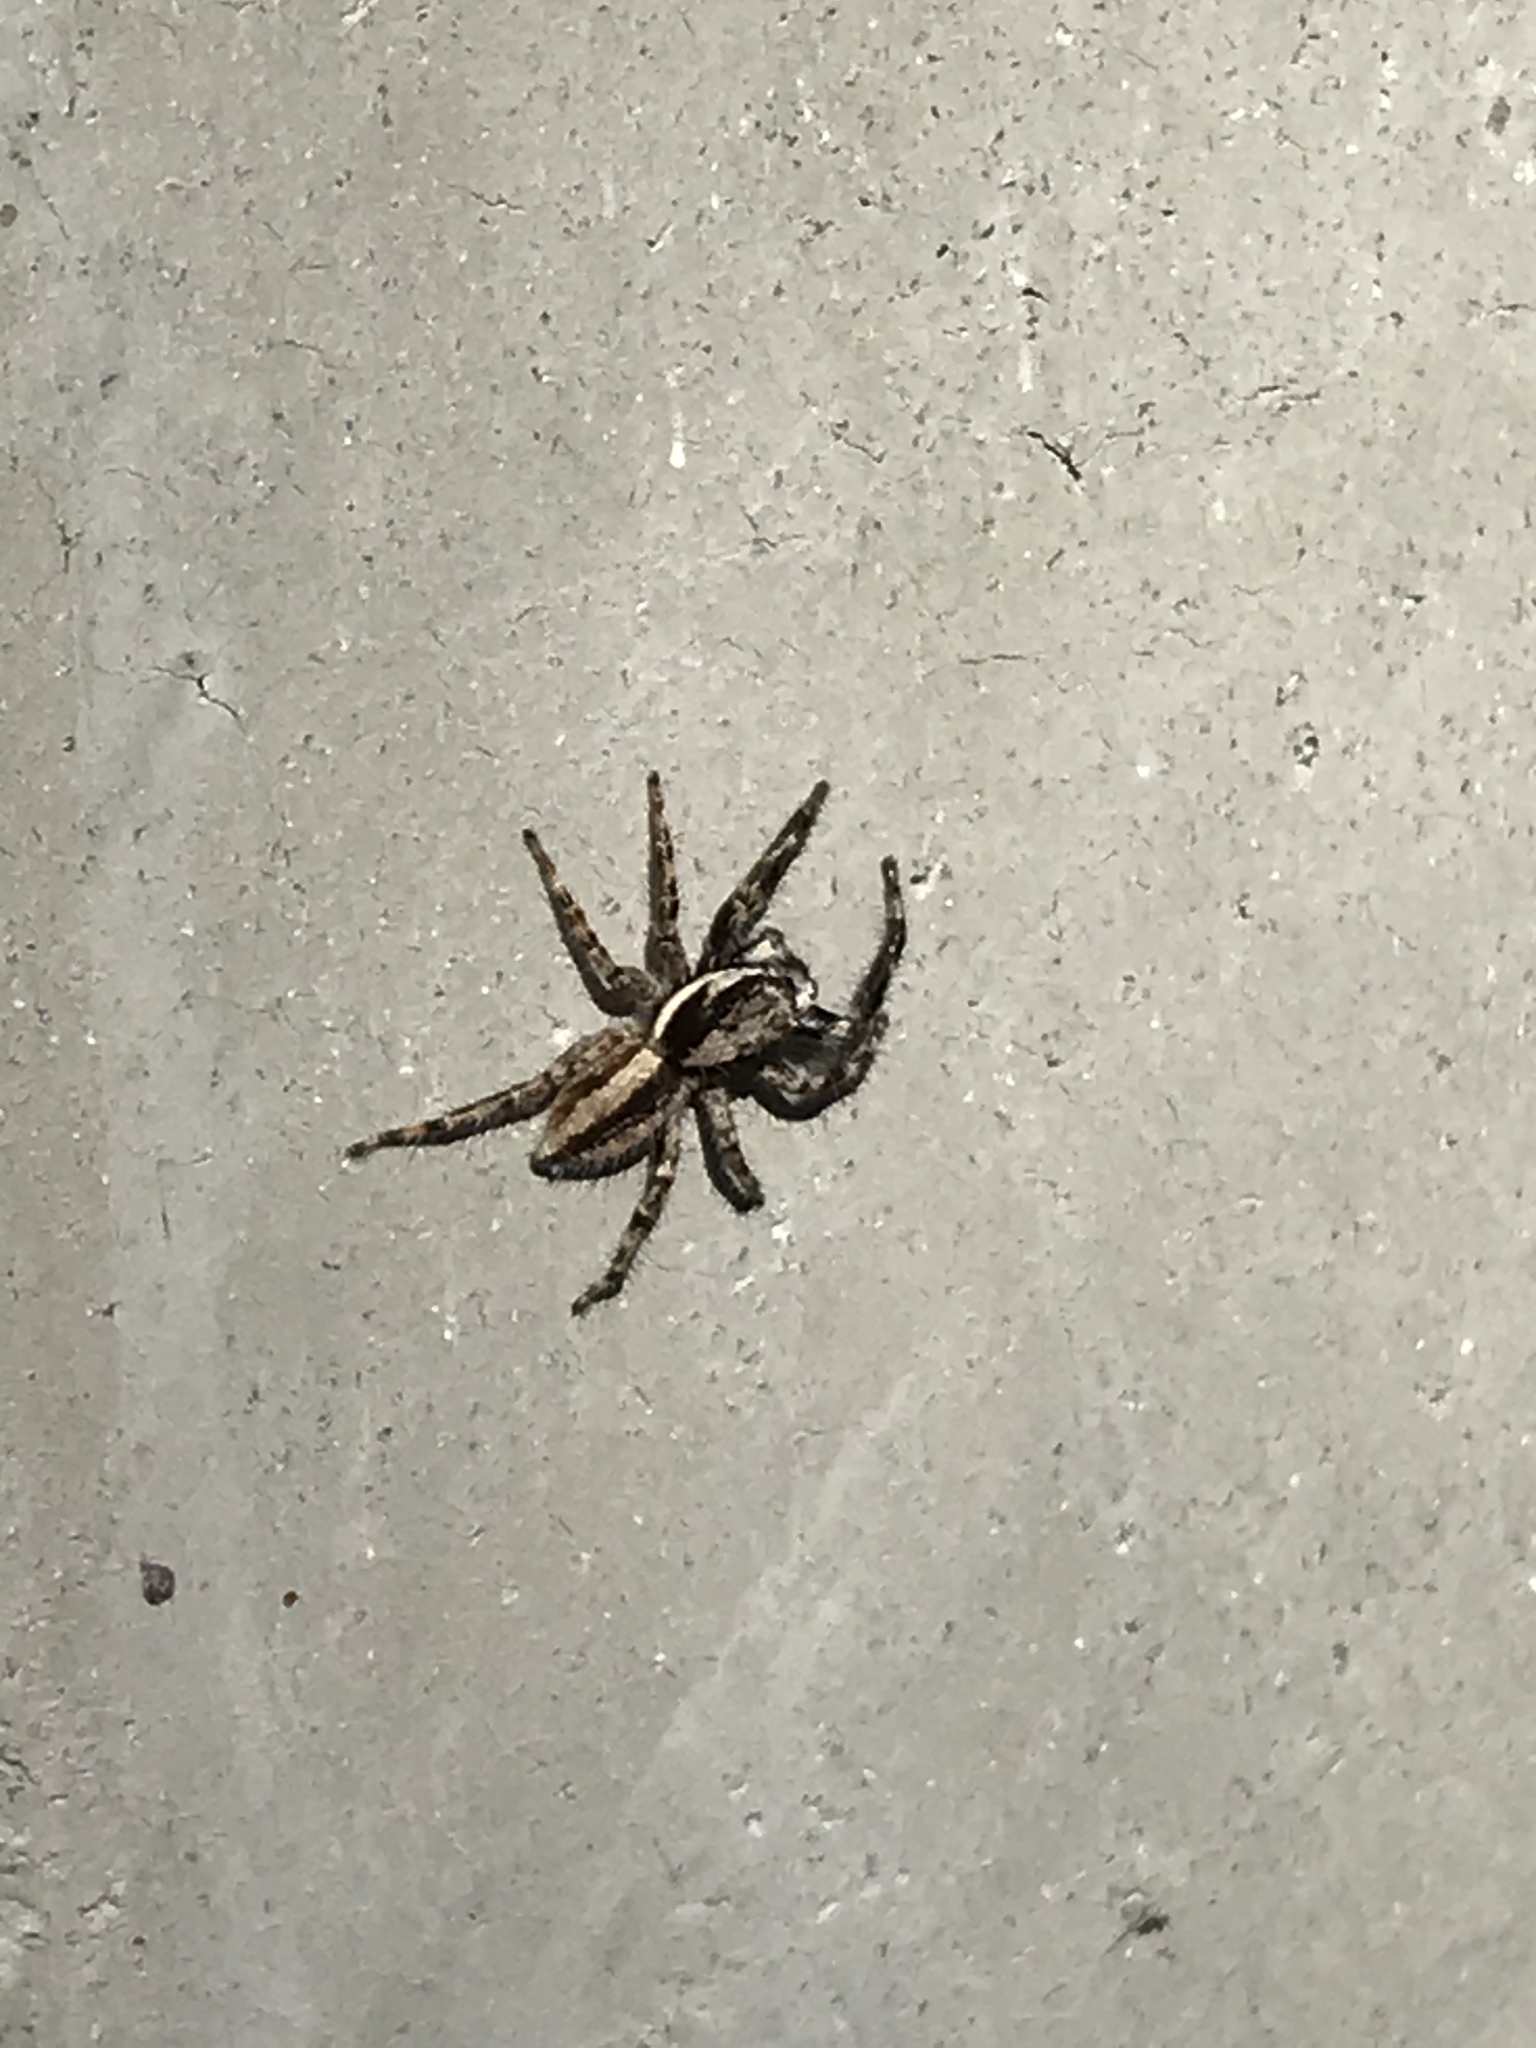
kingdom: Animalia
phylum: Arthropoda
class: Arachnida
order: Araneae
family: Salticidae
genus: Menemerus
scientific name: Menemerus bivittatus
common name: Gray wall jumper
